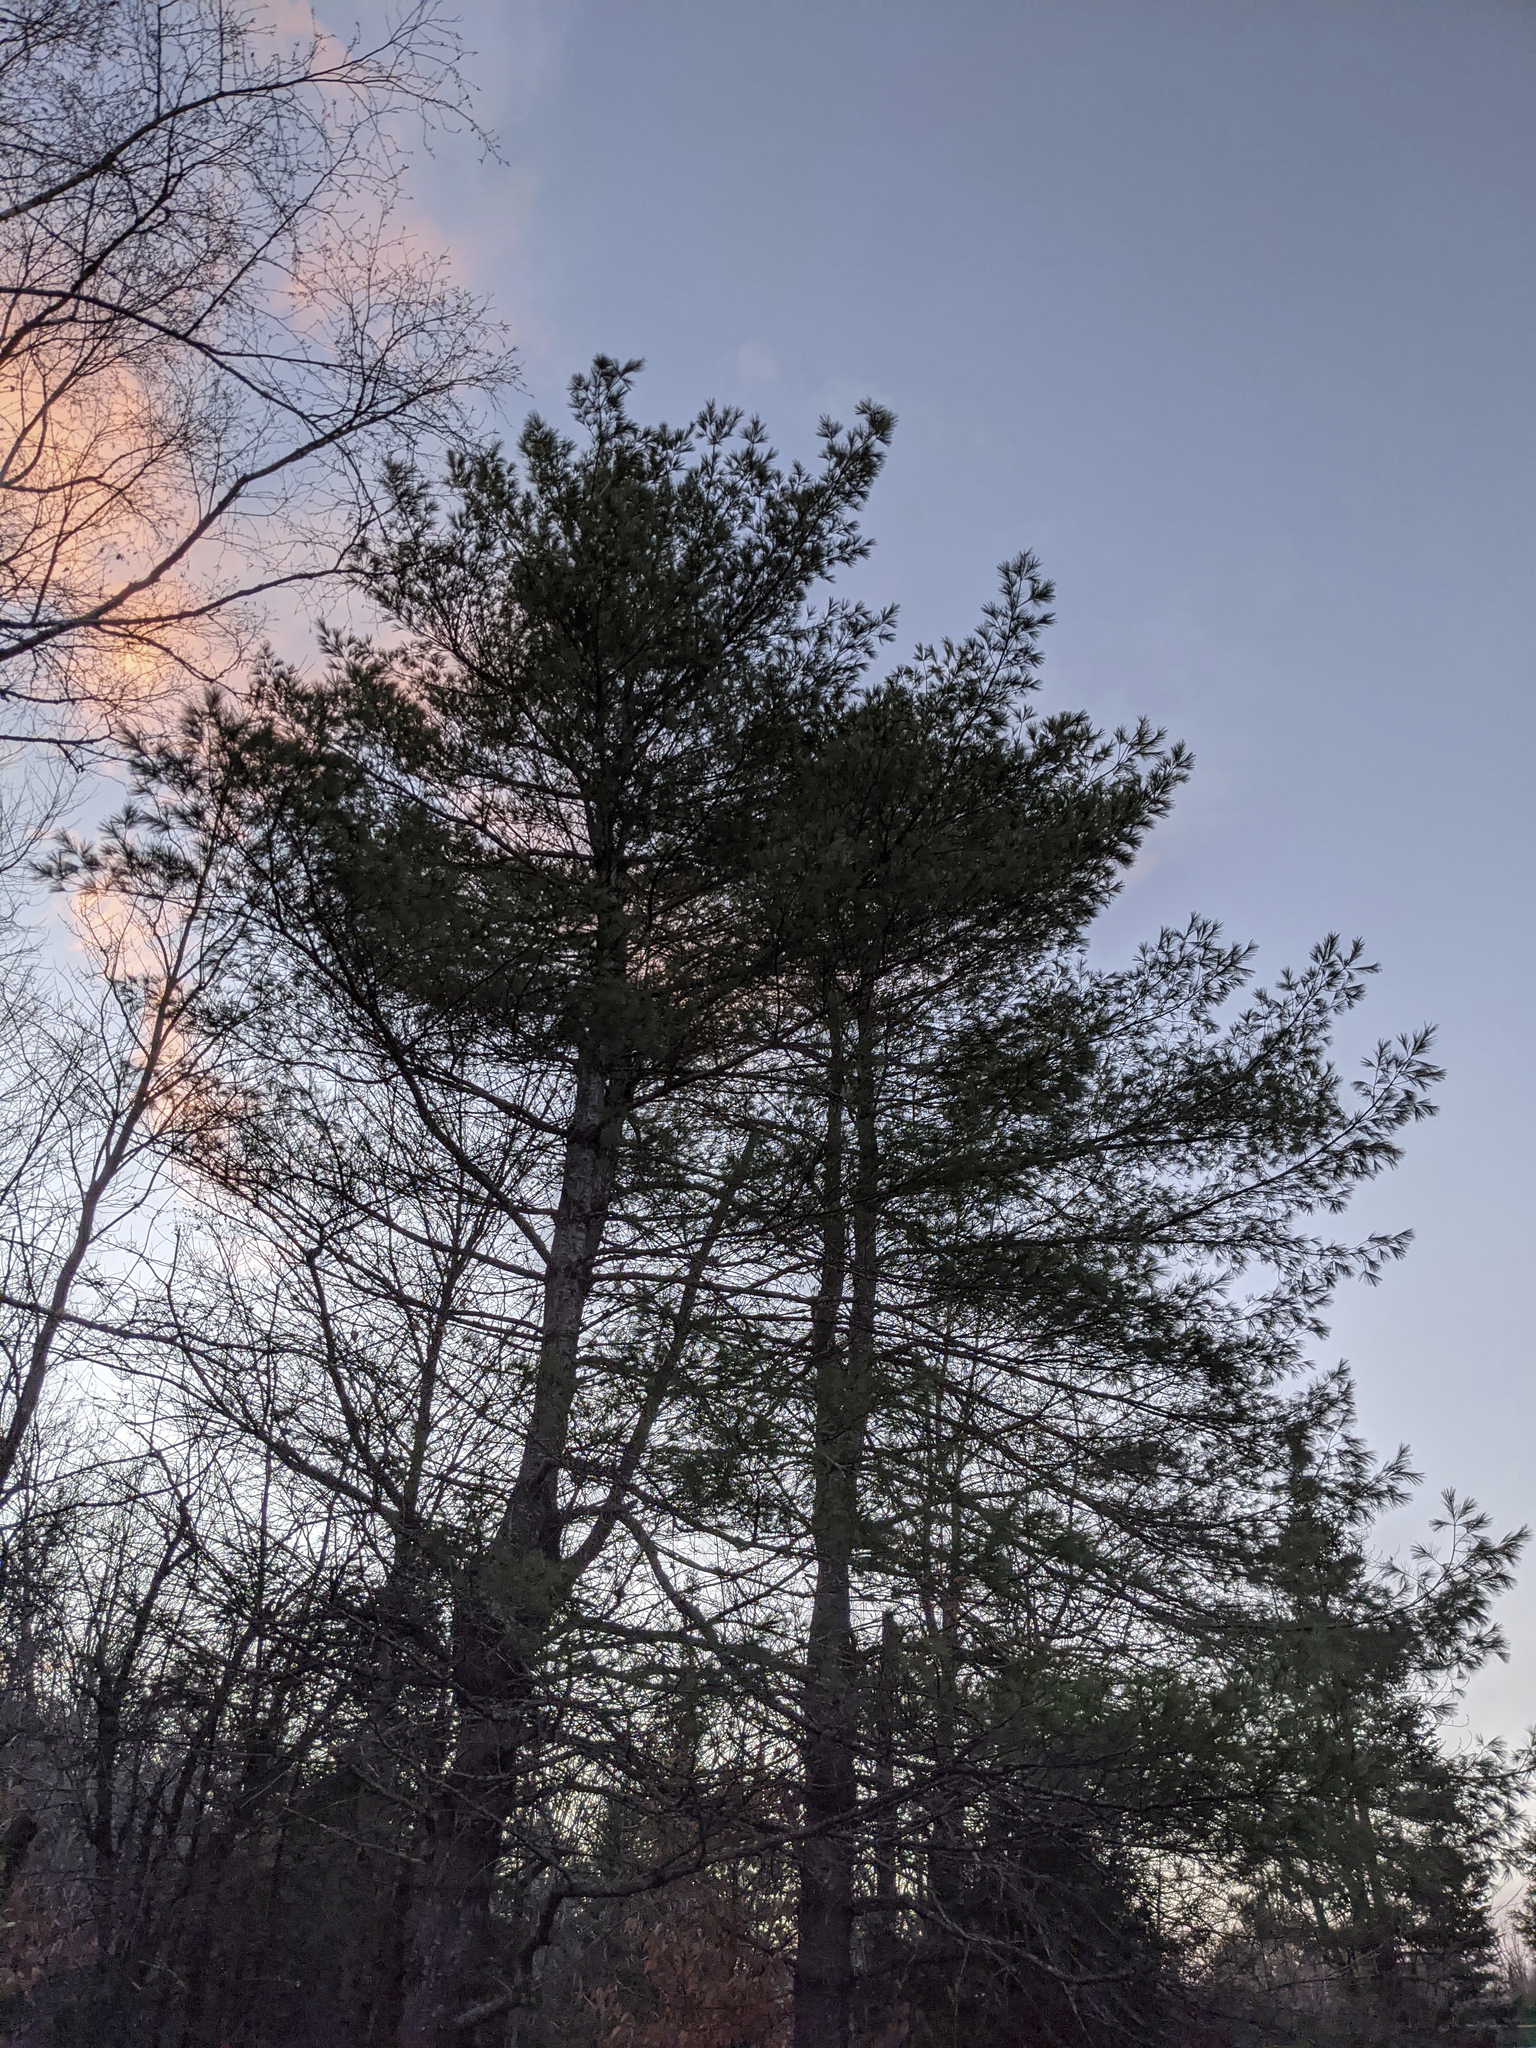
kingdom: Plantae
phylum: Tracheophyta
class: Pinopsida
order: Pinales
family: Pinaceae
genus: Pinus
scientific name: Pinus strobus
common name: Weymouth pine
